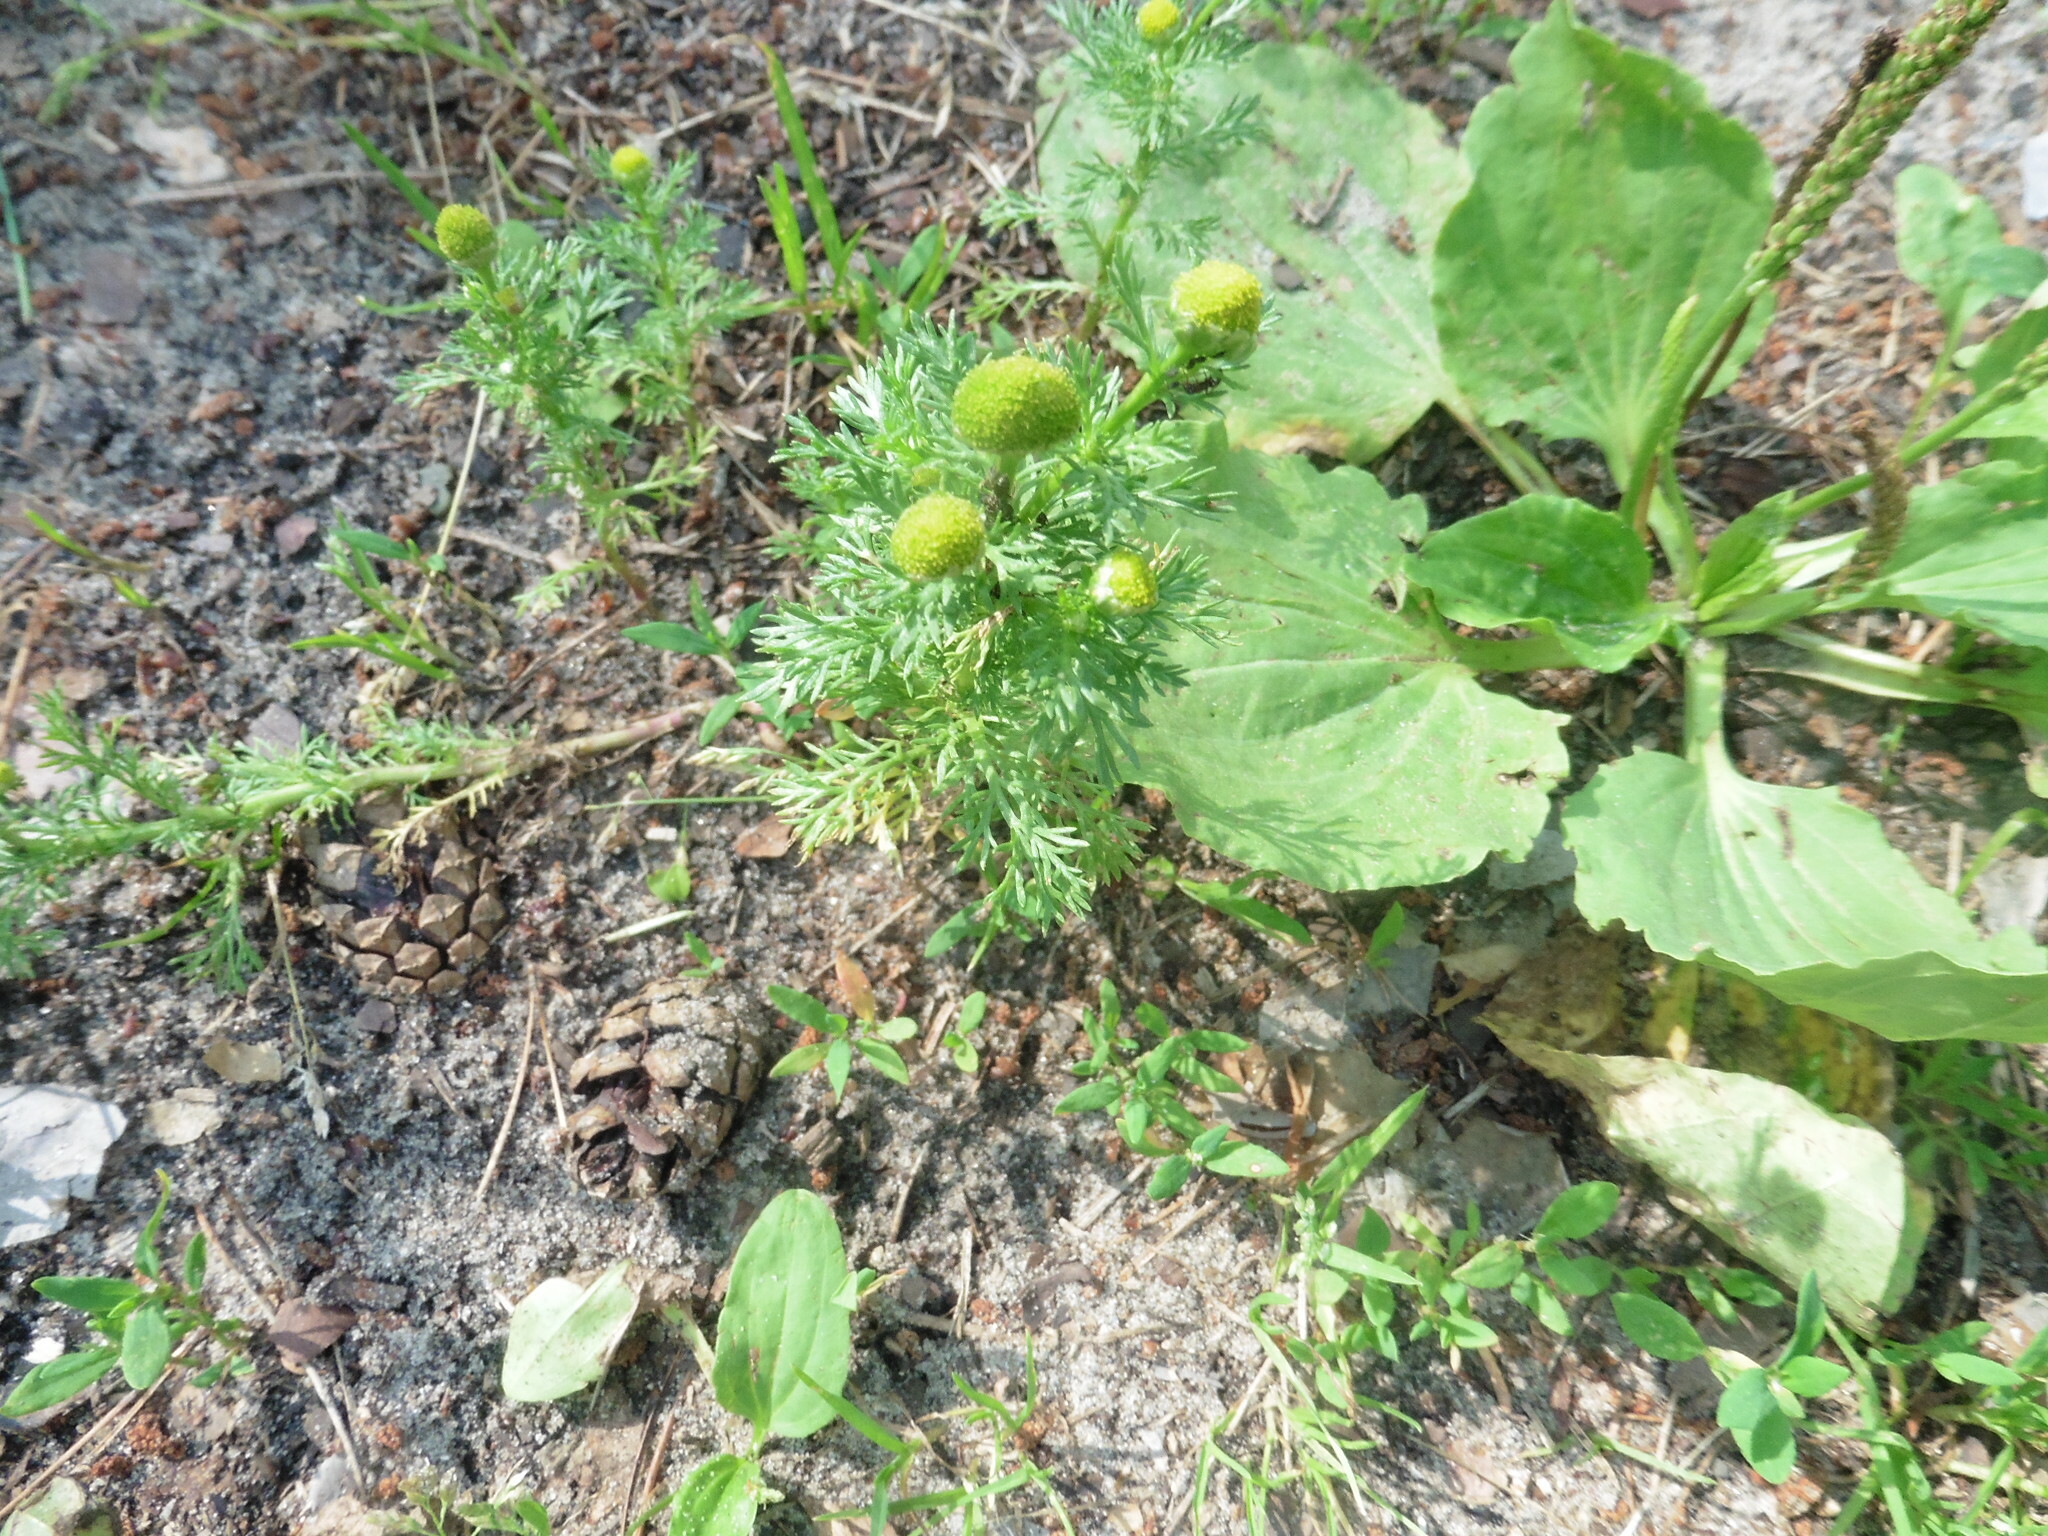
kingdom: Plantae
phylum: Tracheophyta
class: Magnoliopsida
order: Asterales
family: Asteraceae
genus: Matricaria
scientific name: Matricaria discoidea
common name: Disc mayweed
